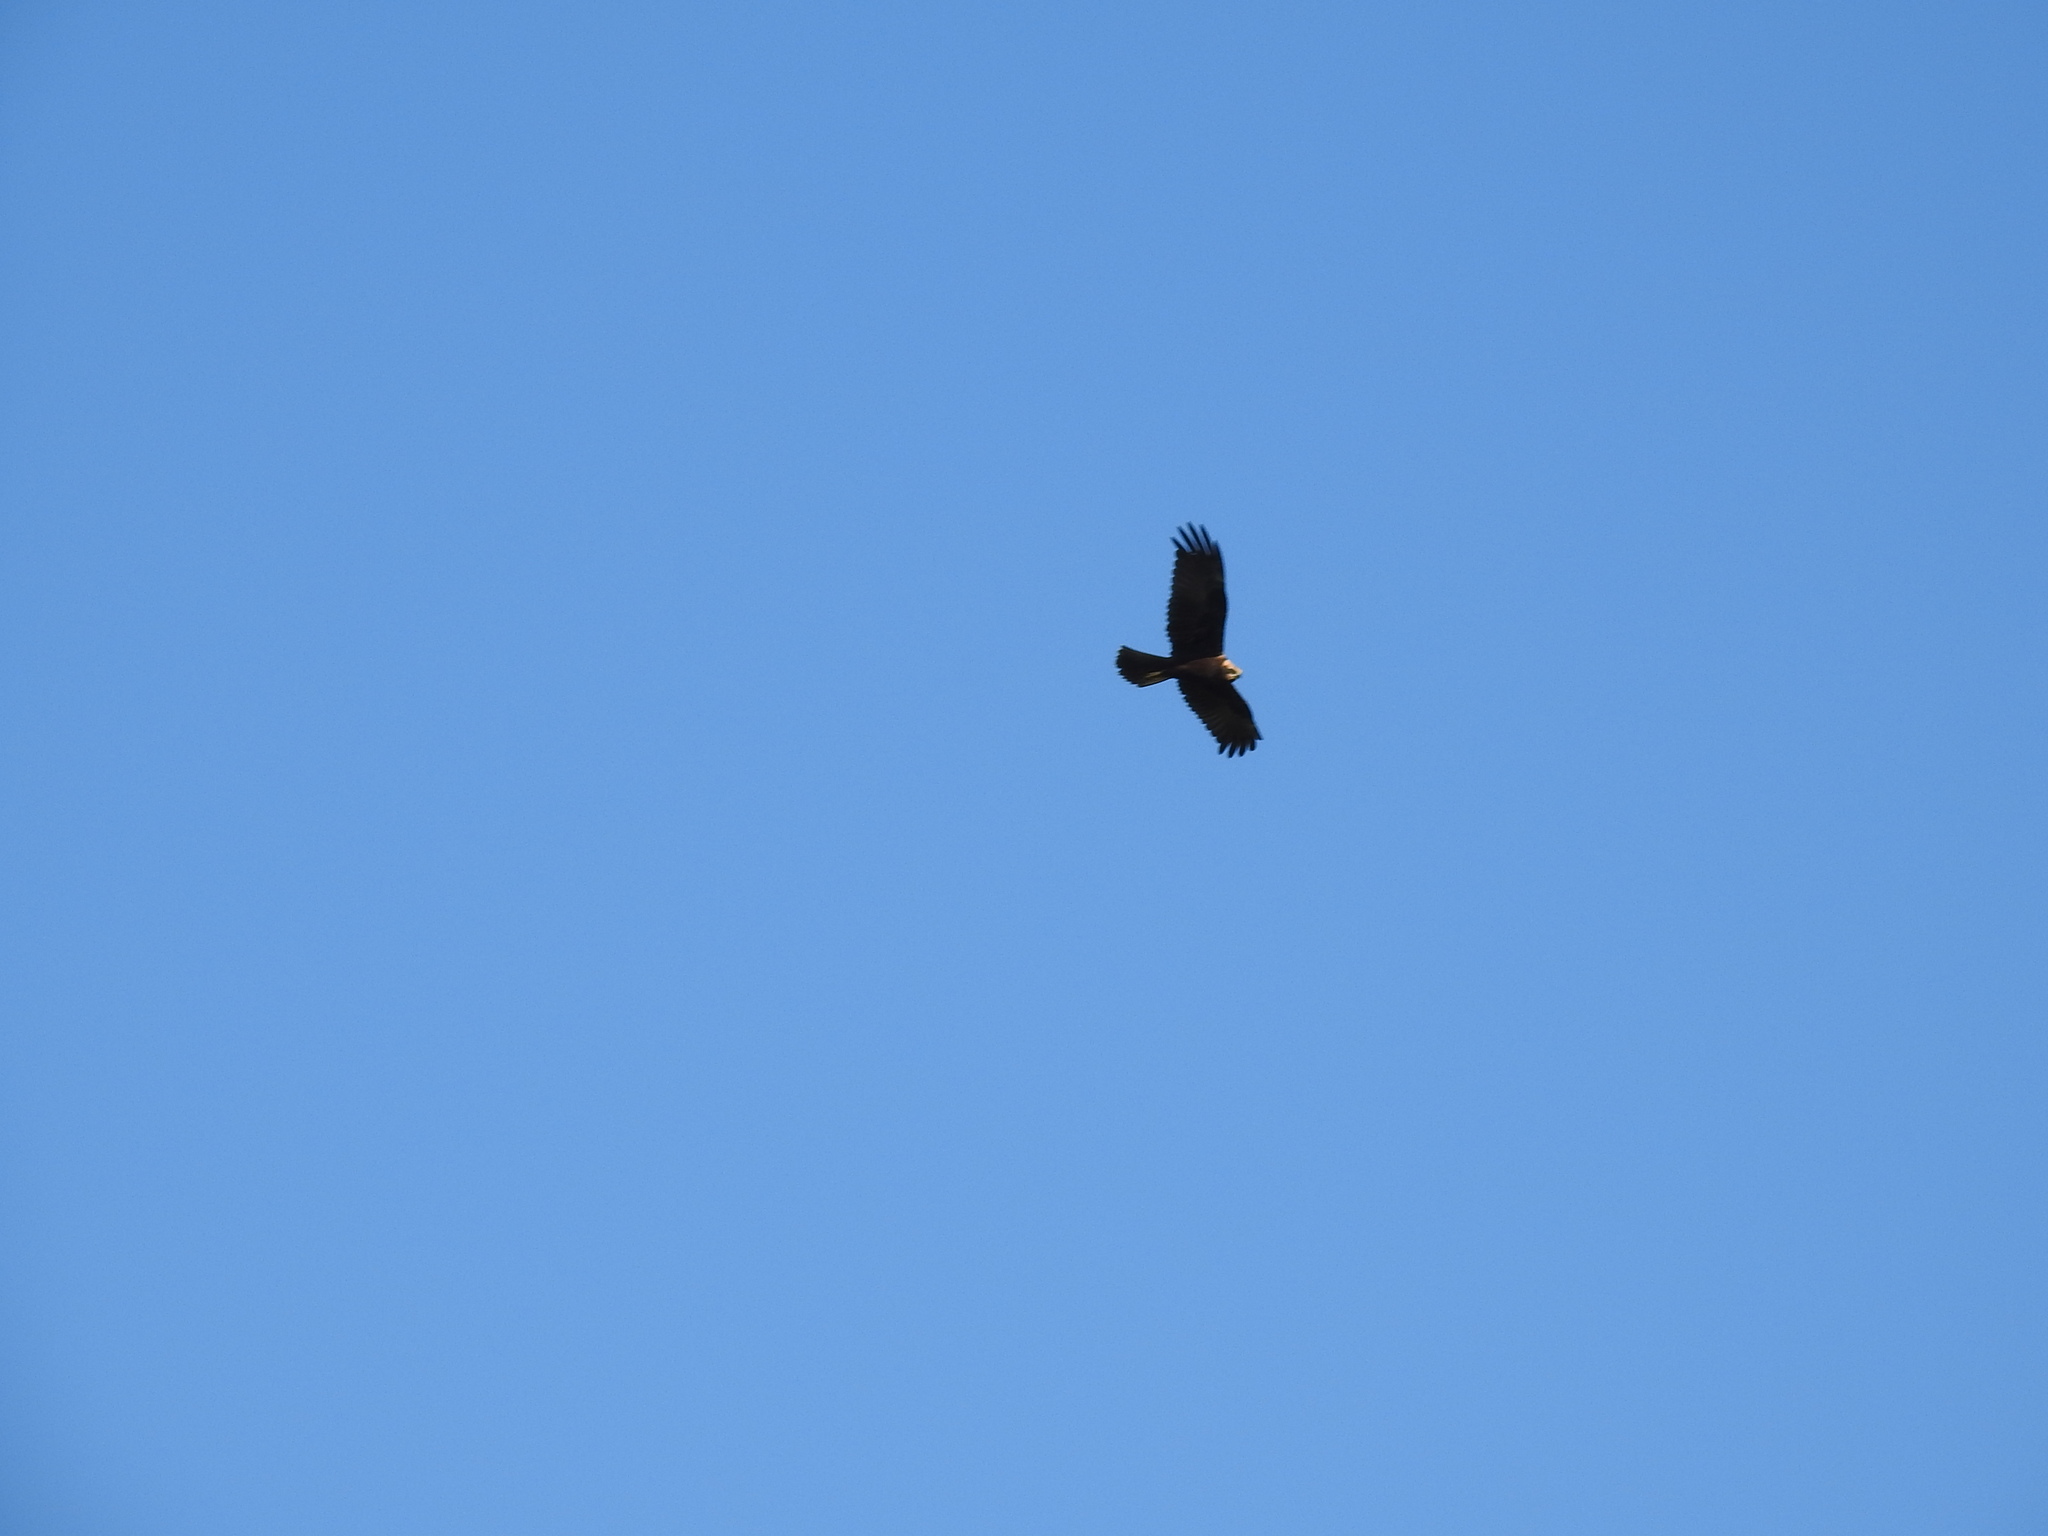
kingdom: Animalia
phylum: Chordata
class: Aves
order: Accipitriformes
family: Accipitridae
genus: Circus
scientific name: Circus aeruginosus
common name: Western marsh harrier
